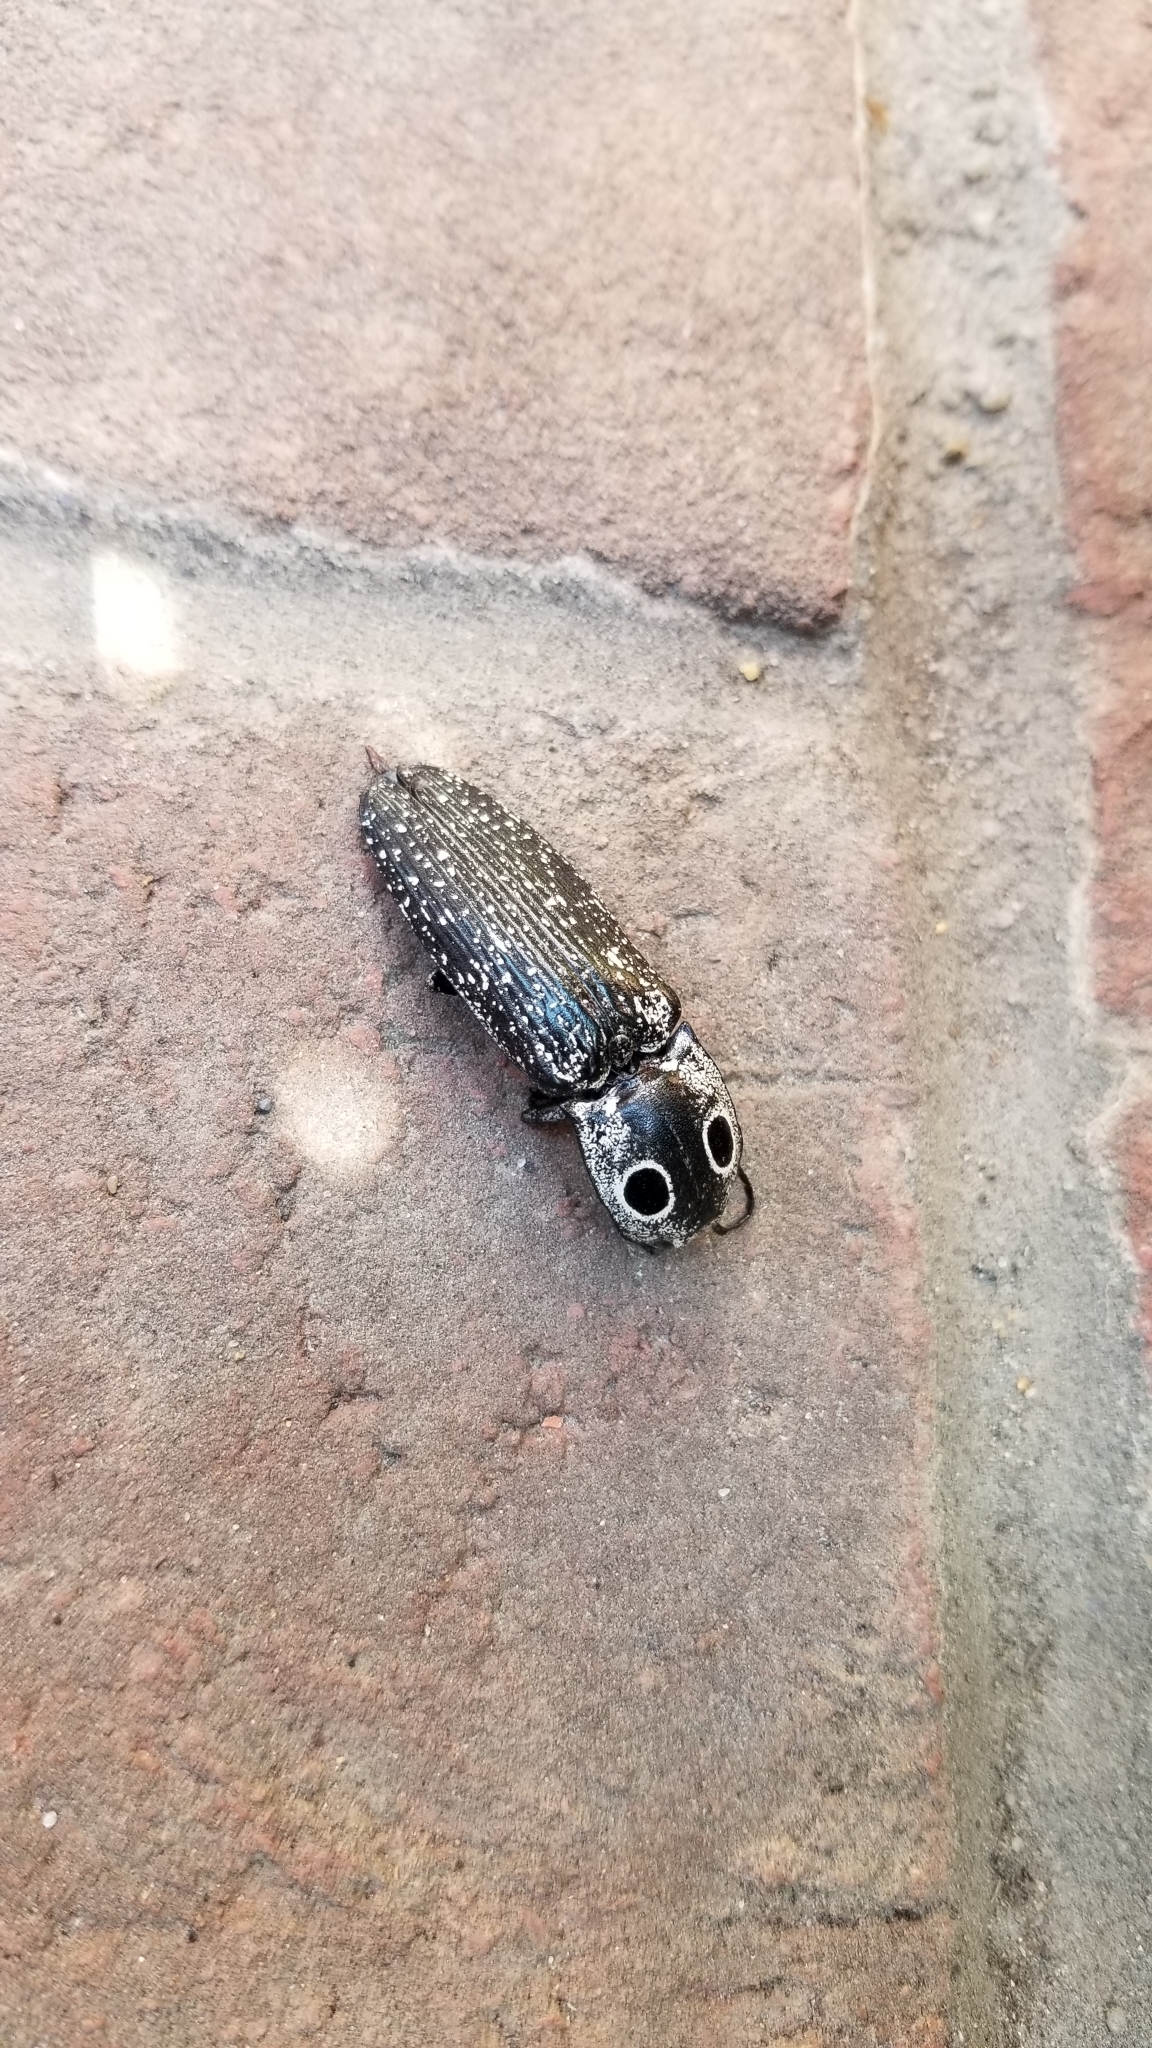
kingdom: Animalia
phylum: Arthropoda
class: Insecta
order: Coleoptera
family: Elateridae
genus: Alaus
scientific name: Alaus oculatus
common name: Eastern eyed click beetle
